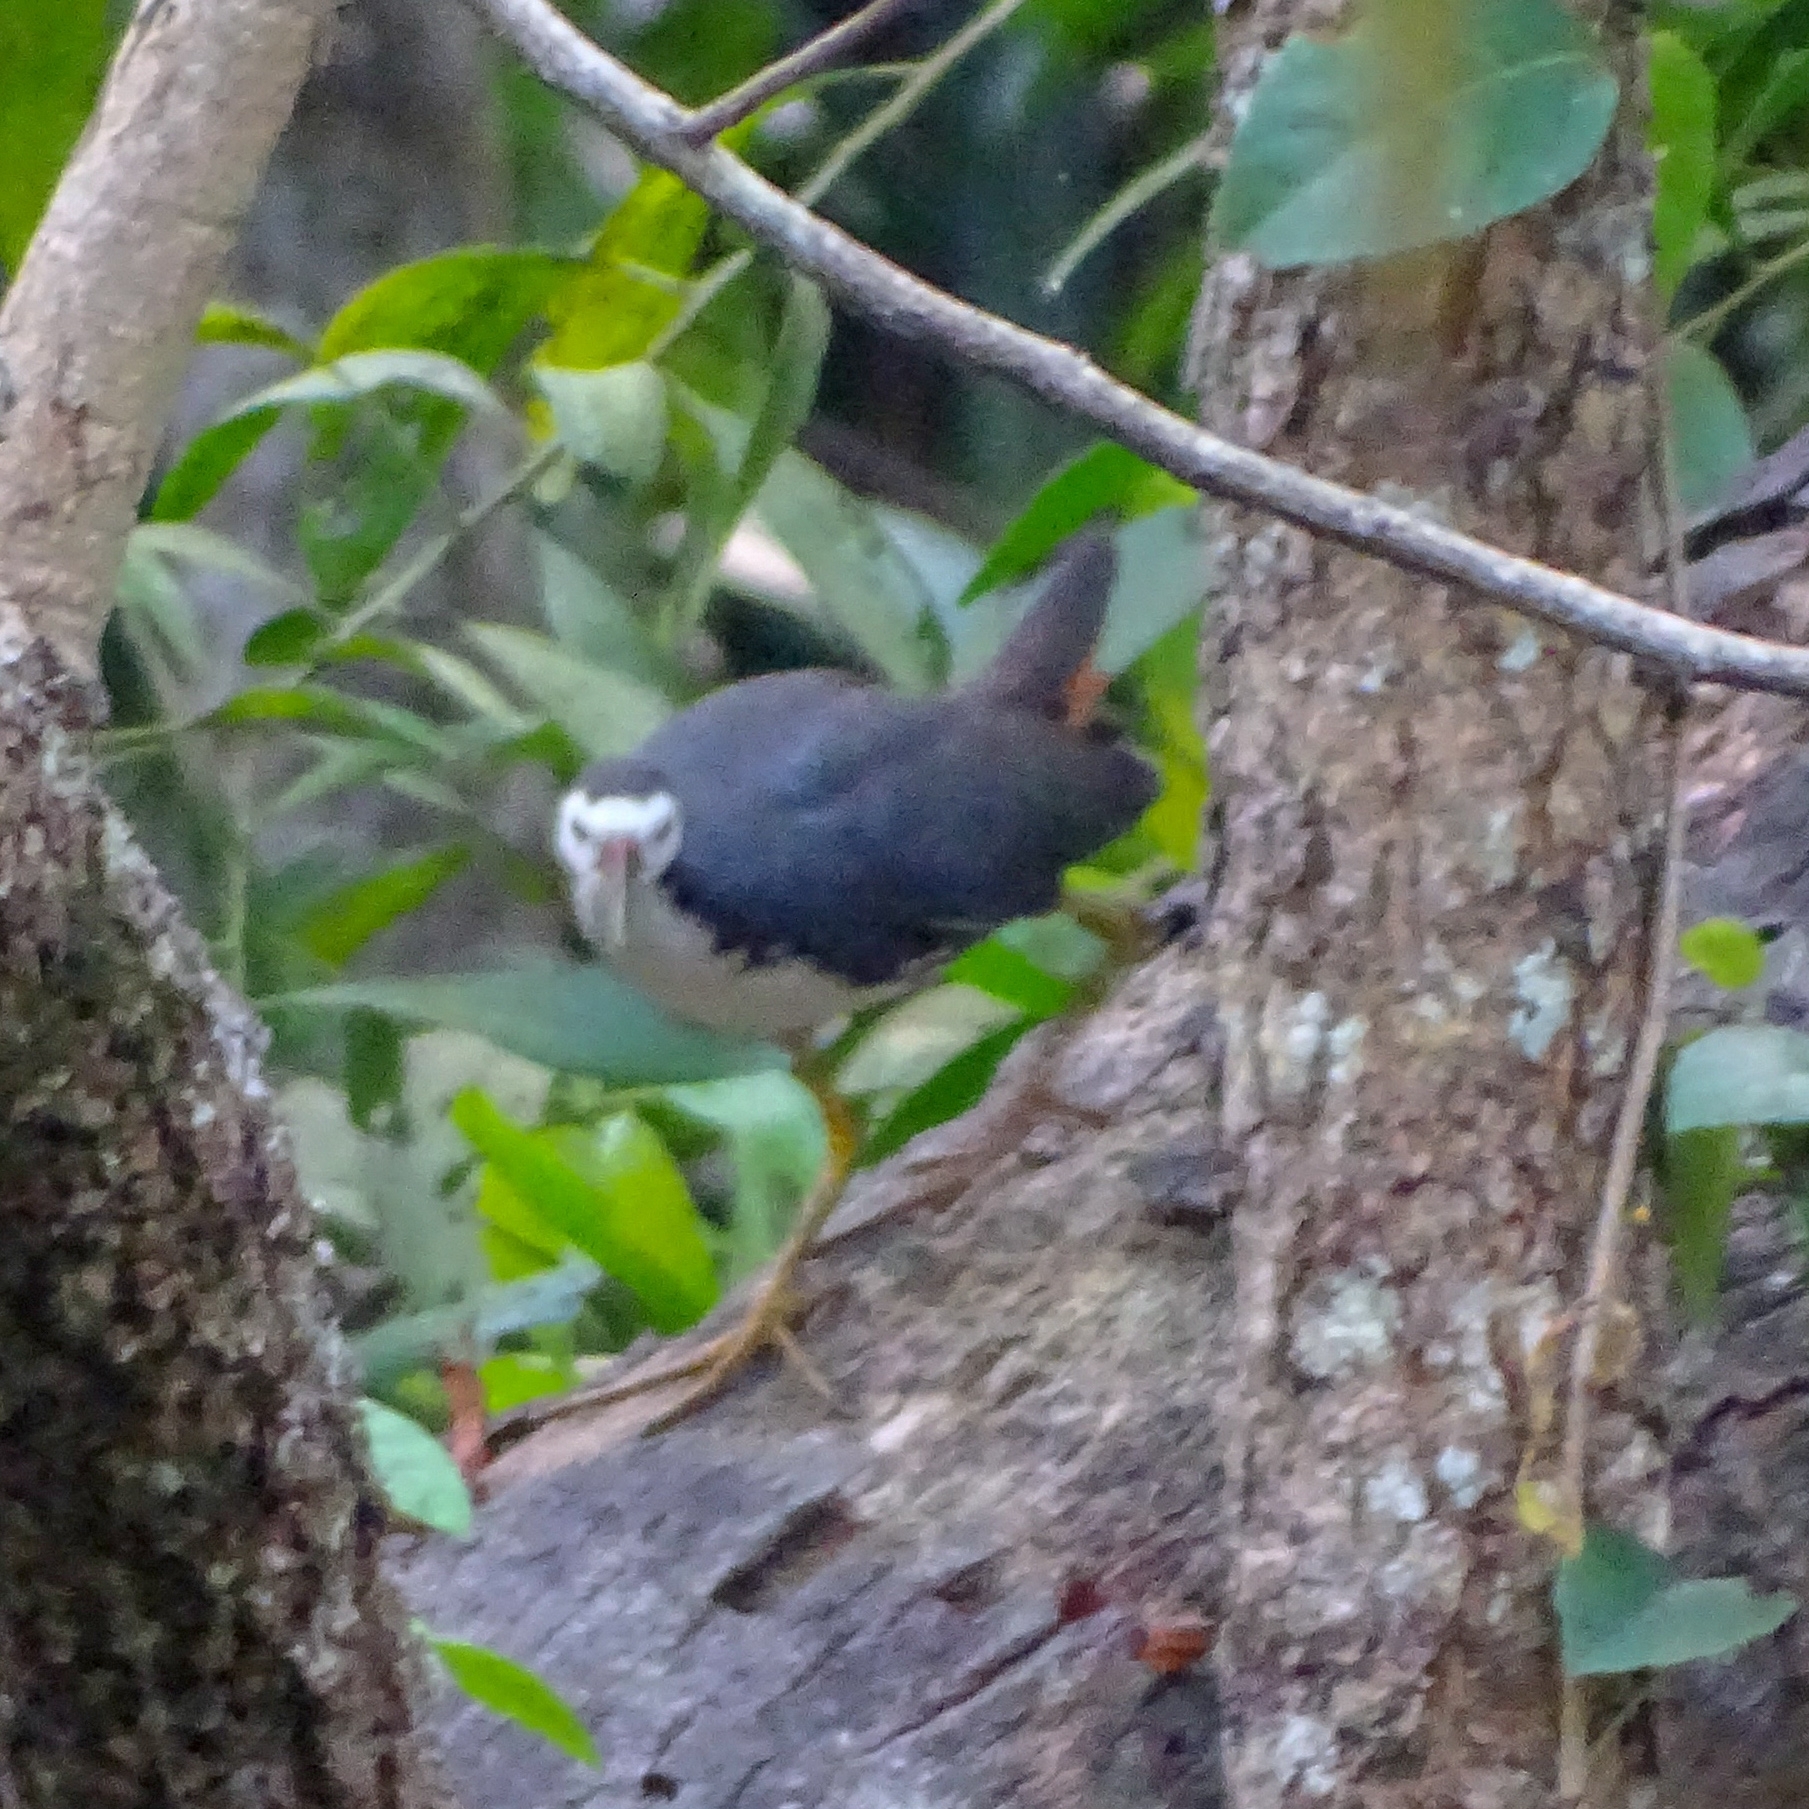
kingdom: Animalia
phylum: Chordata
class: Aves
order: Gruiformes
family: Rallidae
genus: Amaurornis
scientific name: Amaurornis phoenicurus
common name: White-breasted waterhen
